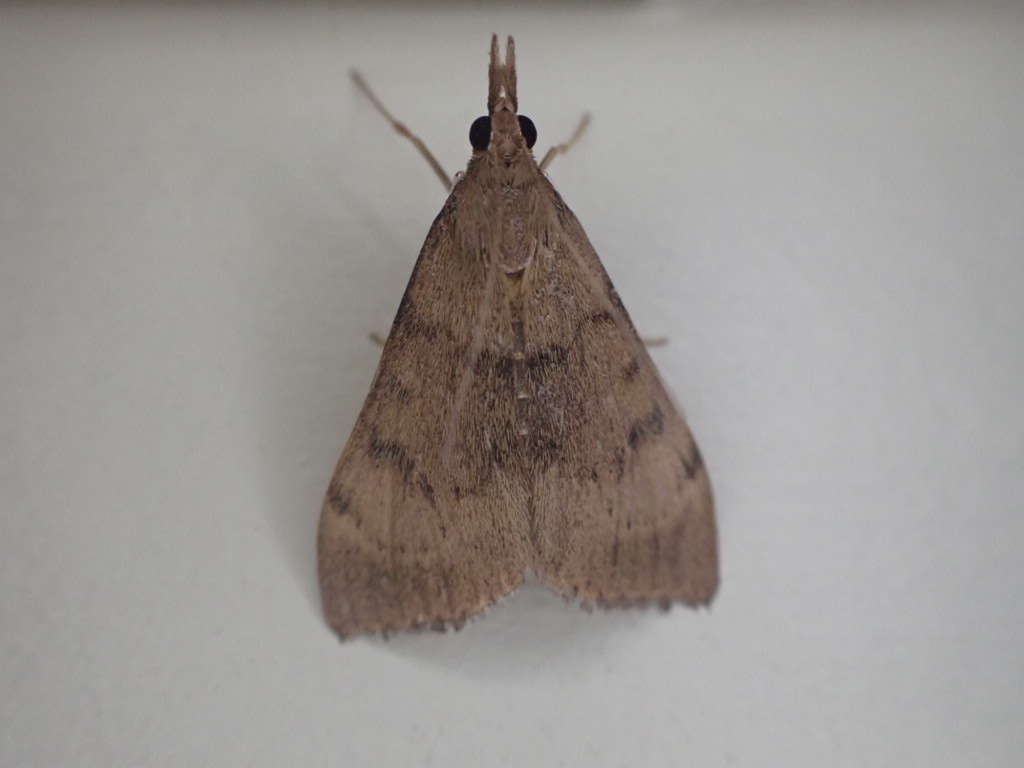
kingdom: Animalia
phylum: Arthropoda
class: Insecta
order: Lepidoptera
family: Crambidae
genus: Uresiphita
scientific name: Uresiphita
